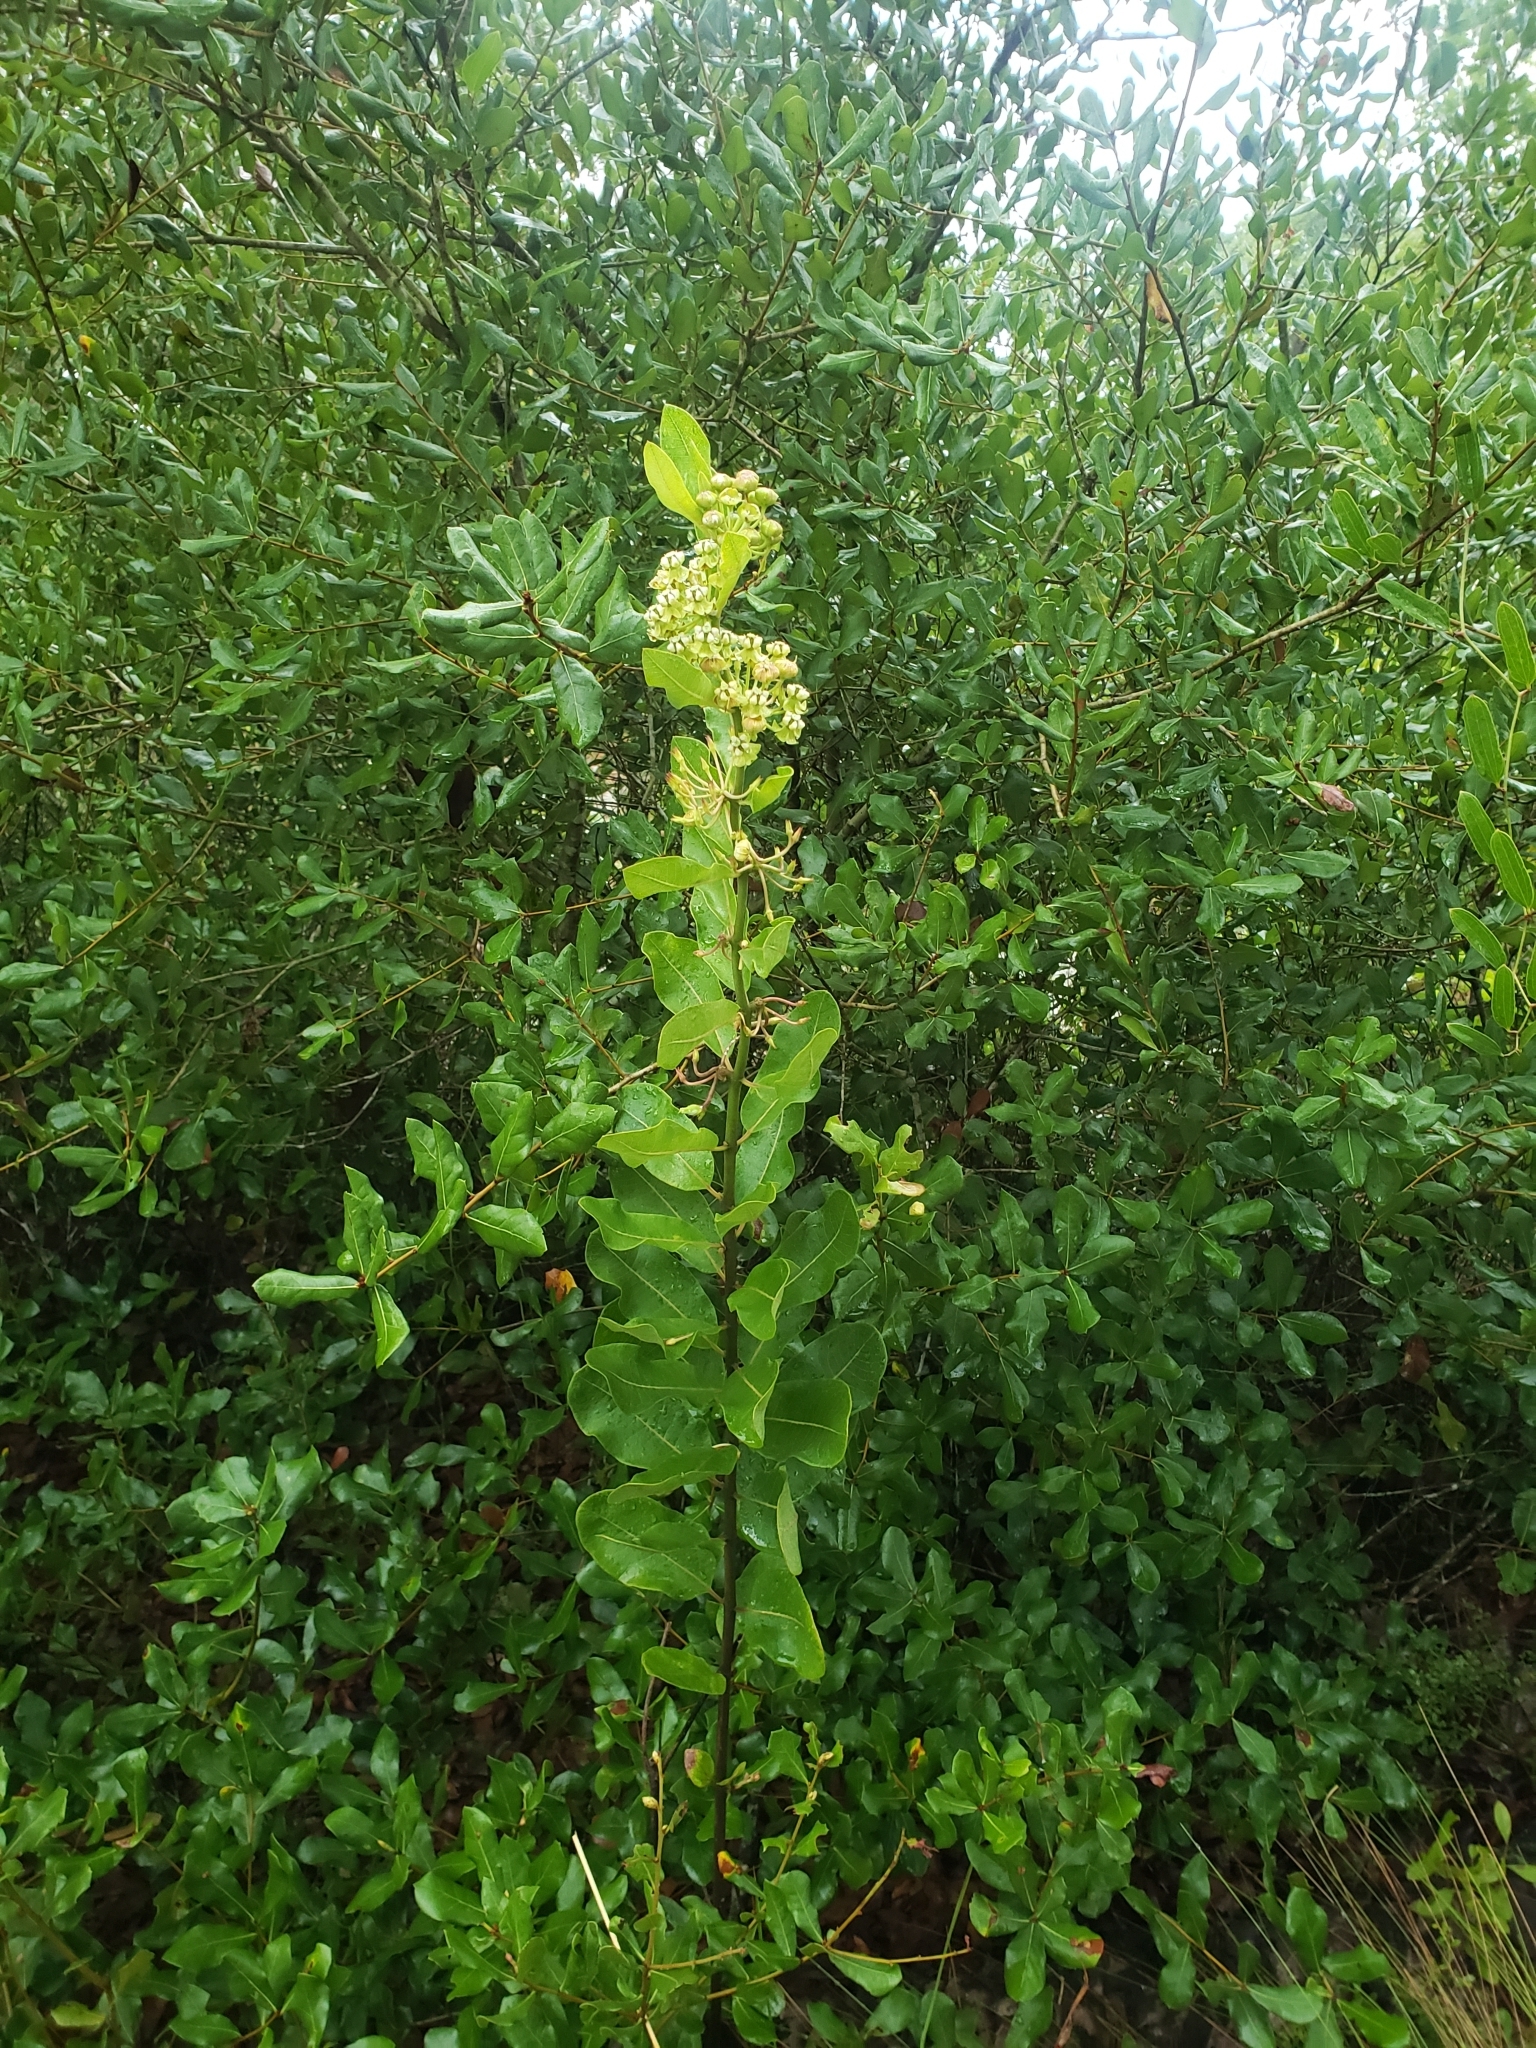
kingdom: Plantae
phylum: Tracheophyta
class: Magnoliopsida
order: Gentianales
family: Apocynaceae
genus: Asclepias
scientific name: Asclepias tomentosa
